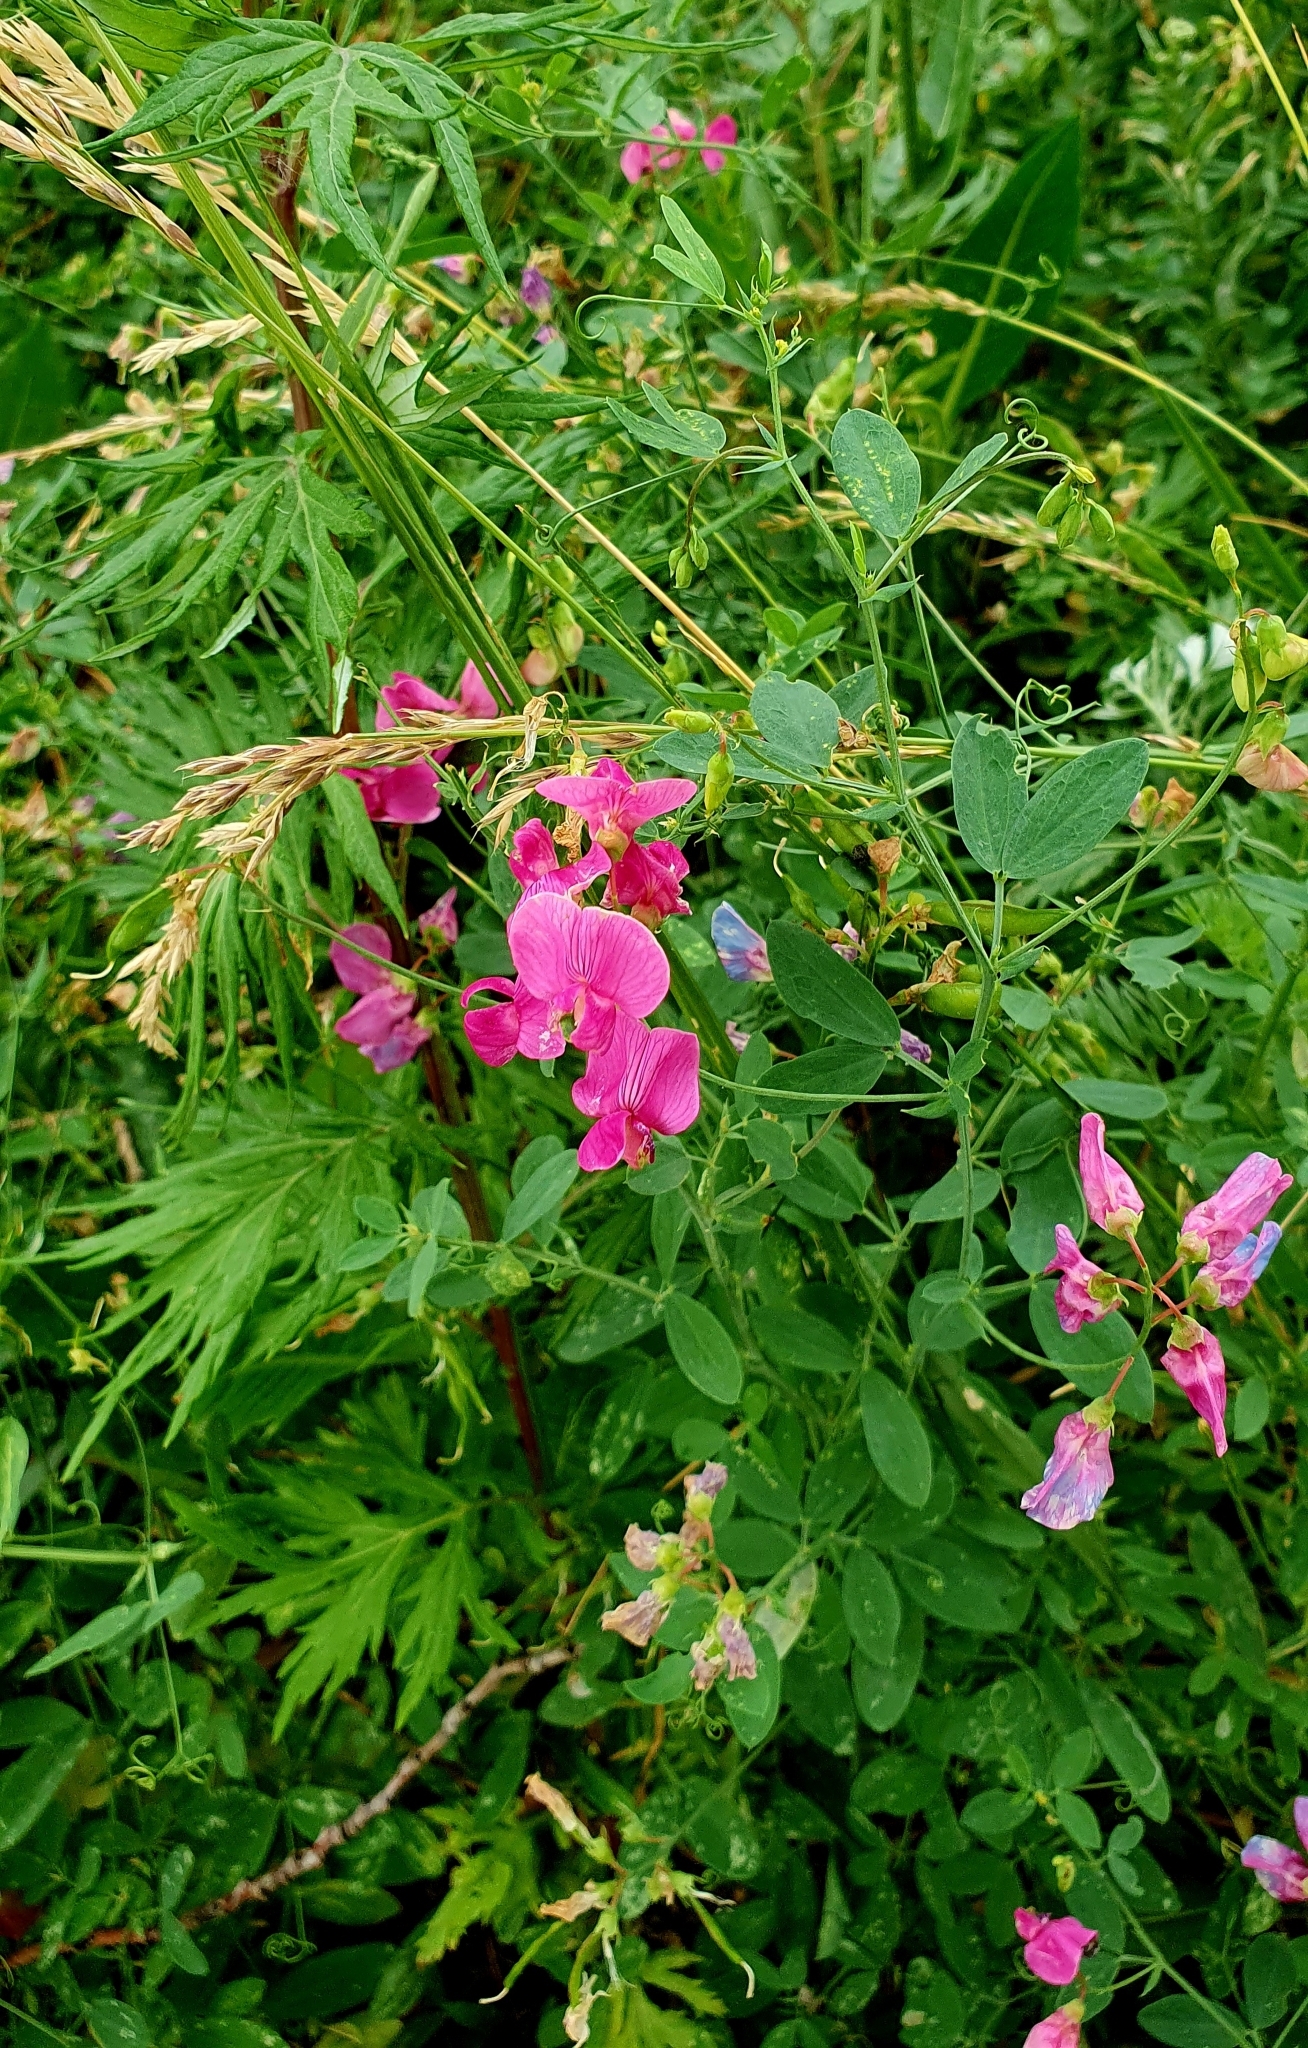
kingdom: Plantae
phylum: Tracheophyta
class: Magnoliopsida
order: Fabales
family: Fabaceae
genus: Lathyrus
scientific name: Lathyrus tuberosus
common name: Tuberous pea
